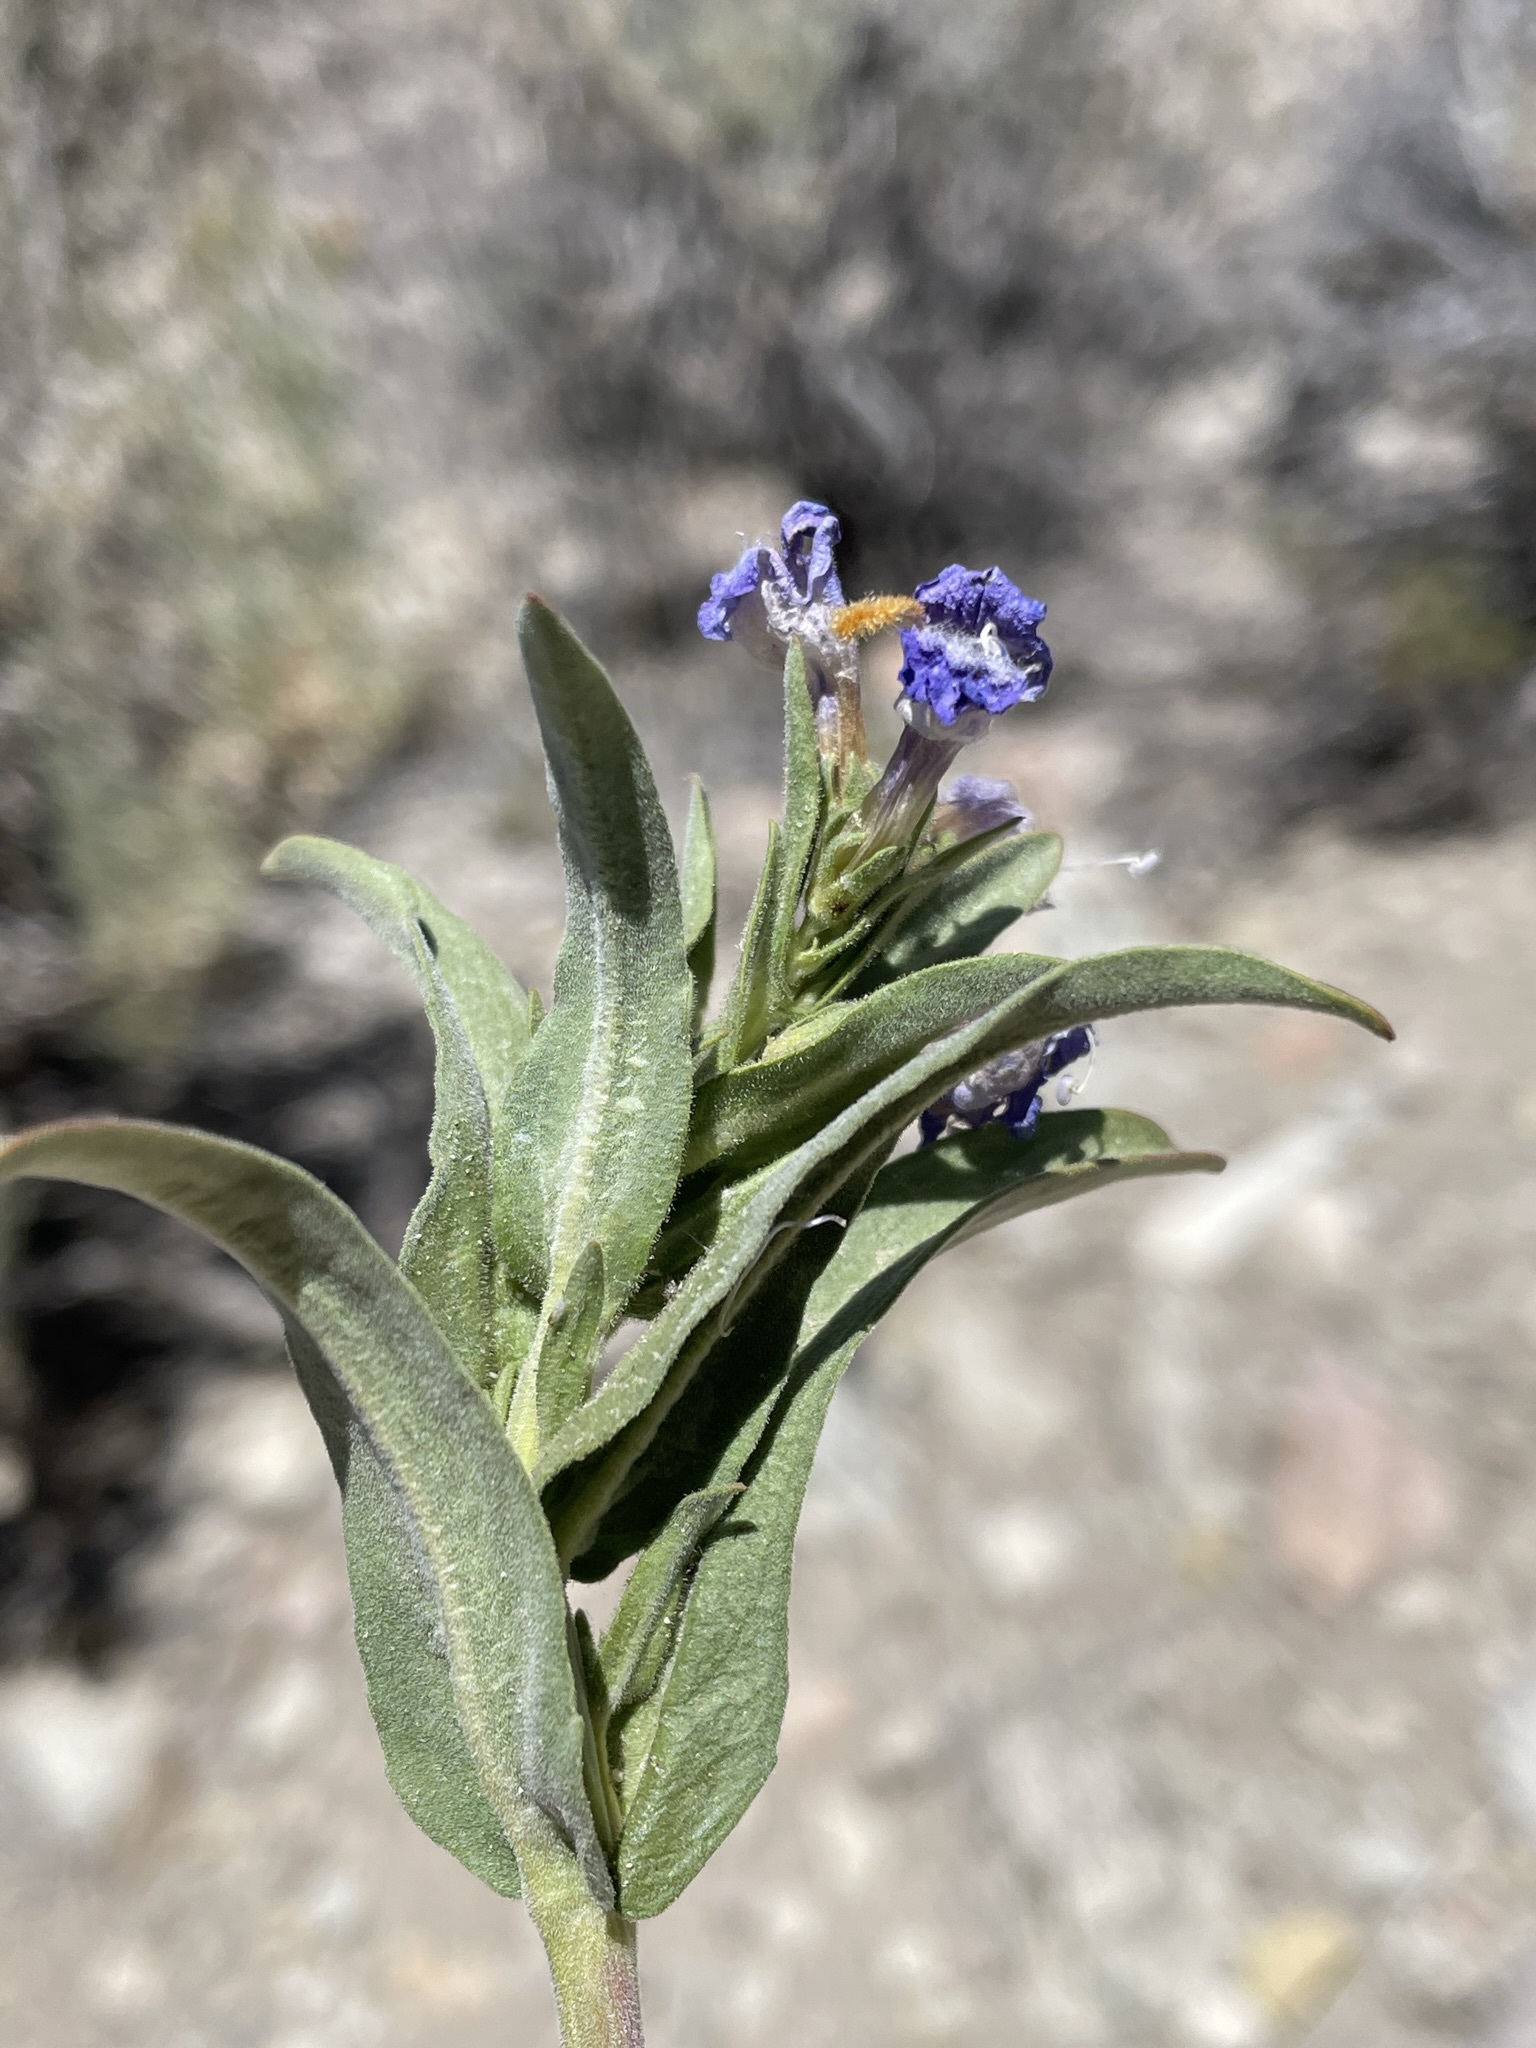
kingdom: Plantae
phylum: Tracheophyta
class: Magnoliopsida
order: Lamiales
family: Plantaginaceae
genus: Penstemon
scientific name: Penstemon janishiae
